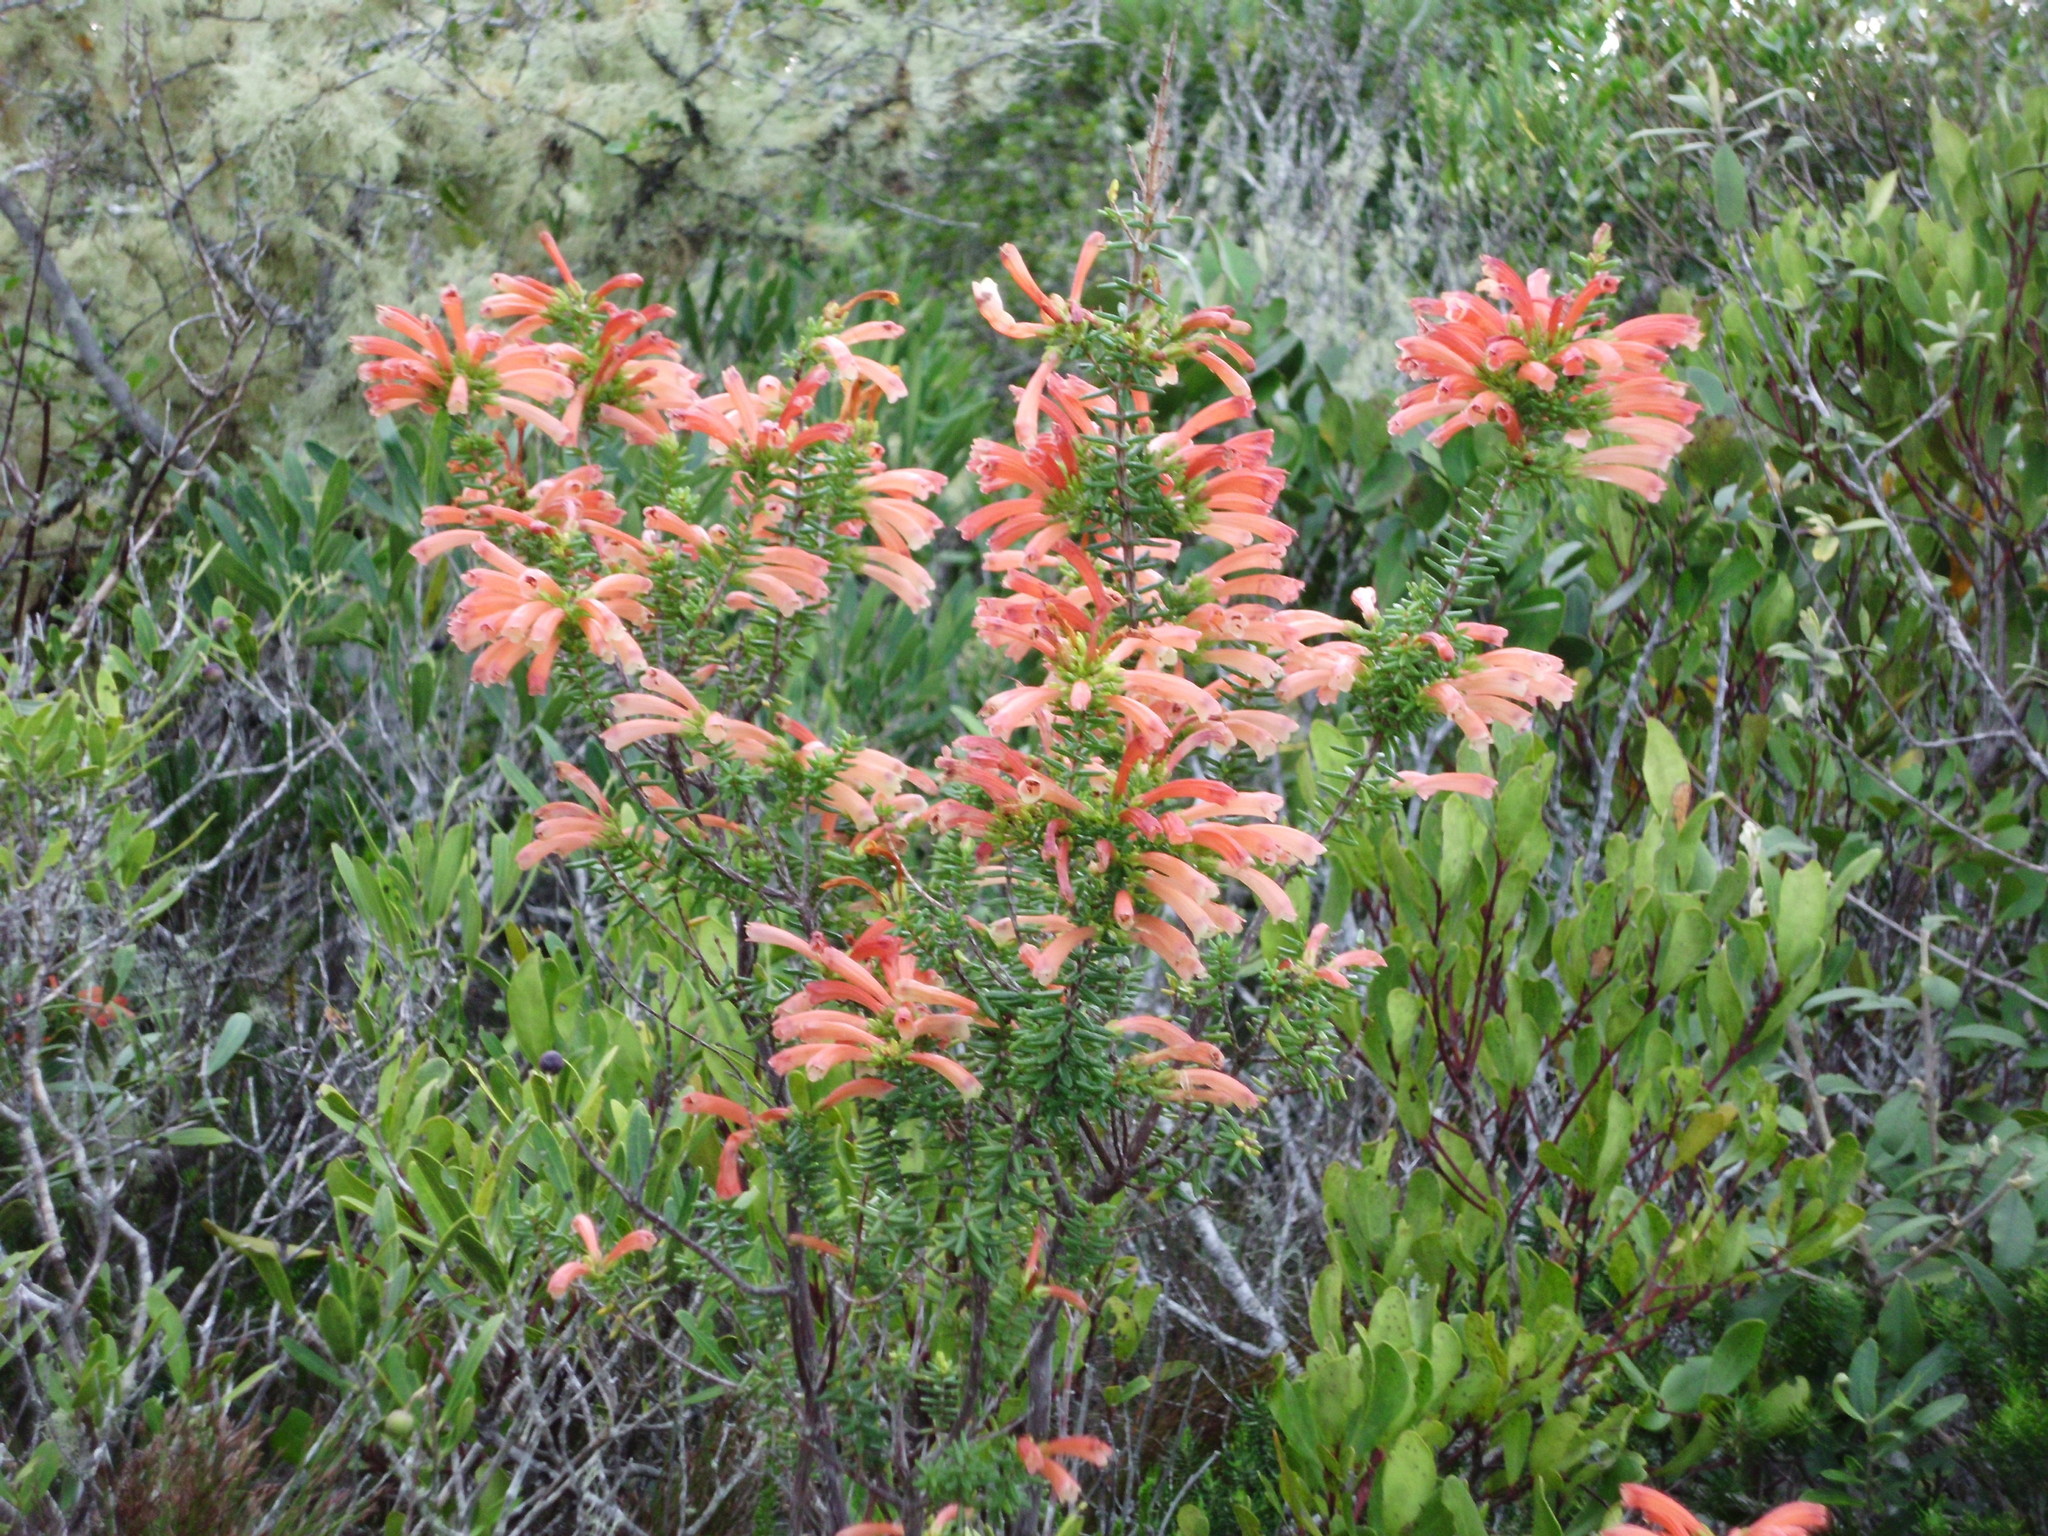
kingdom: Plantae
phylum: Tracheophyta
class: Magnoliopsida
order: Ericales
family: Ericaceae
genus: Erica
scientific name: Erica glandulosa
